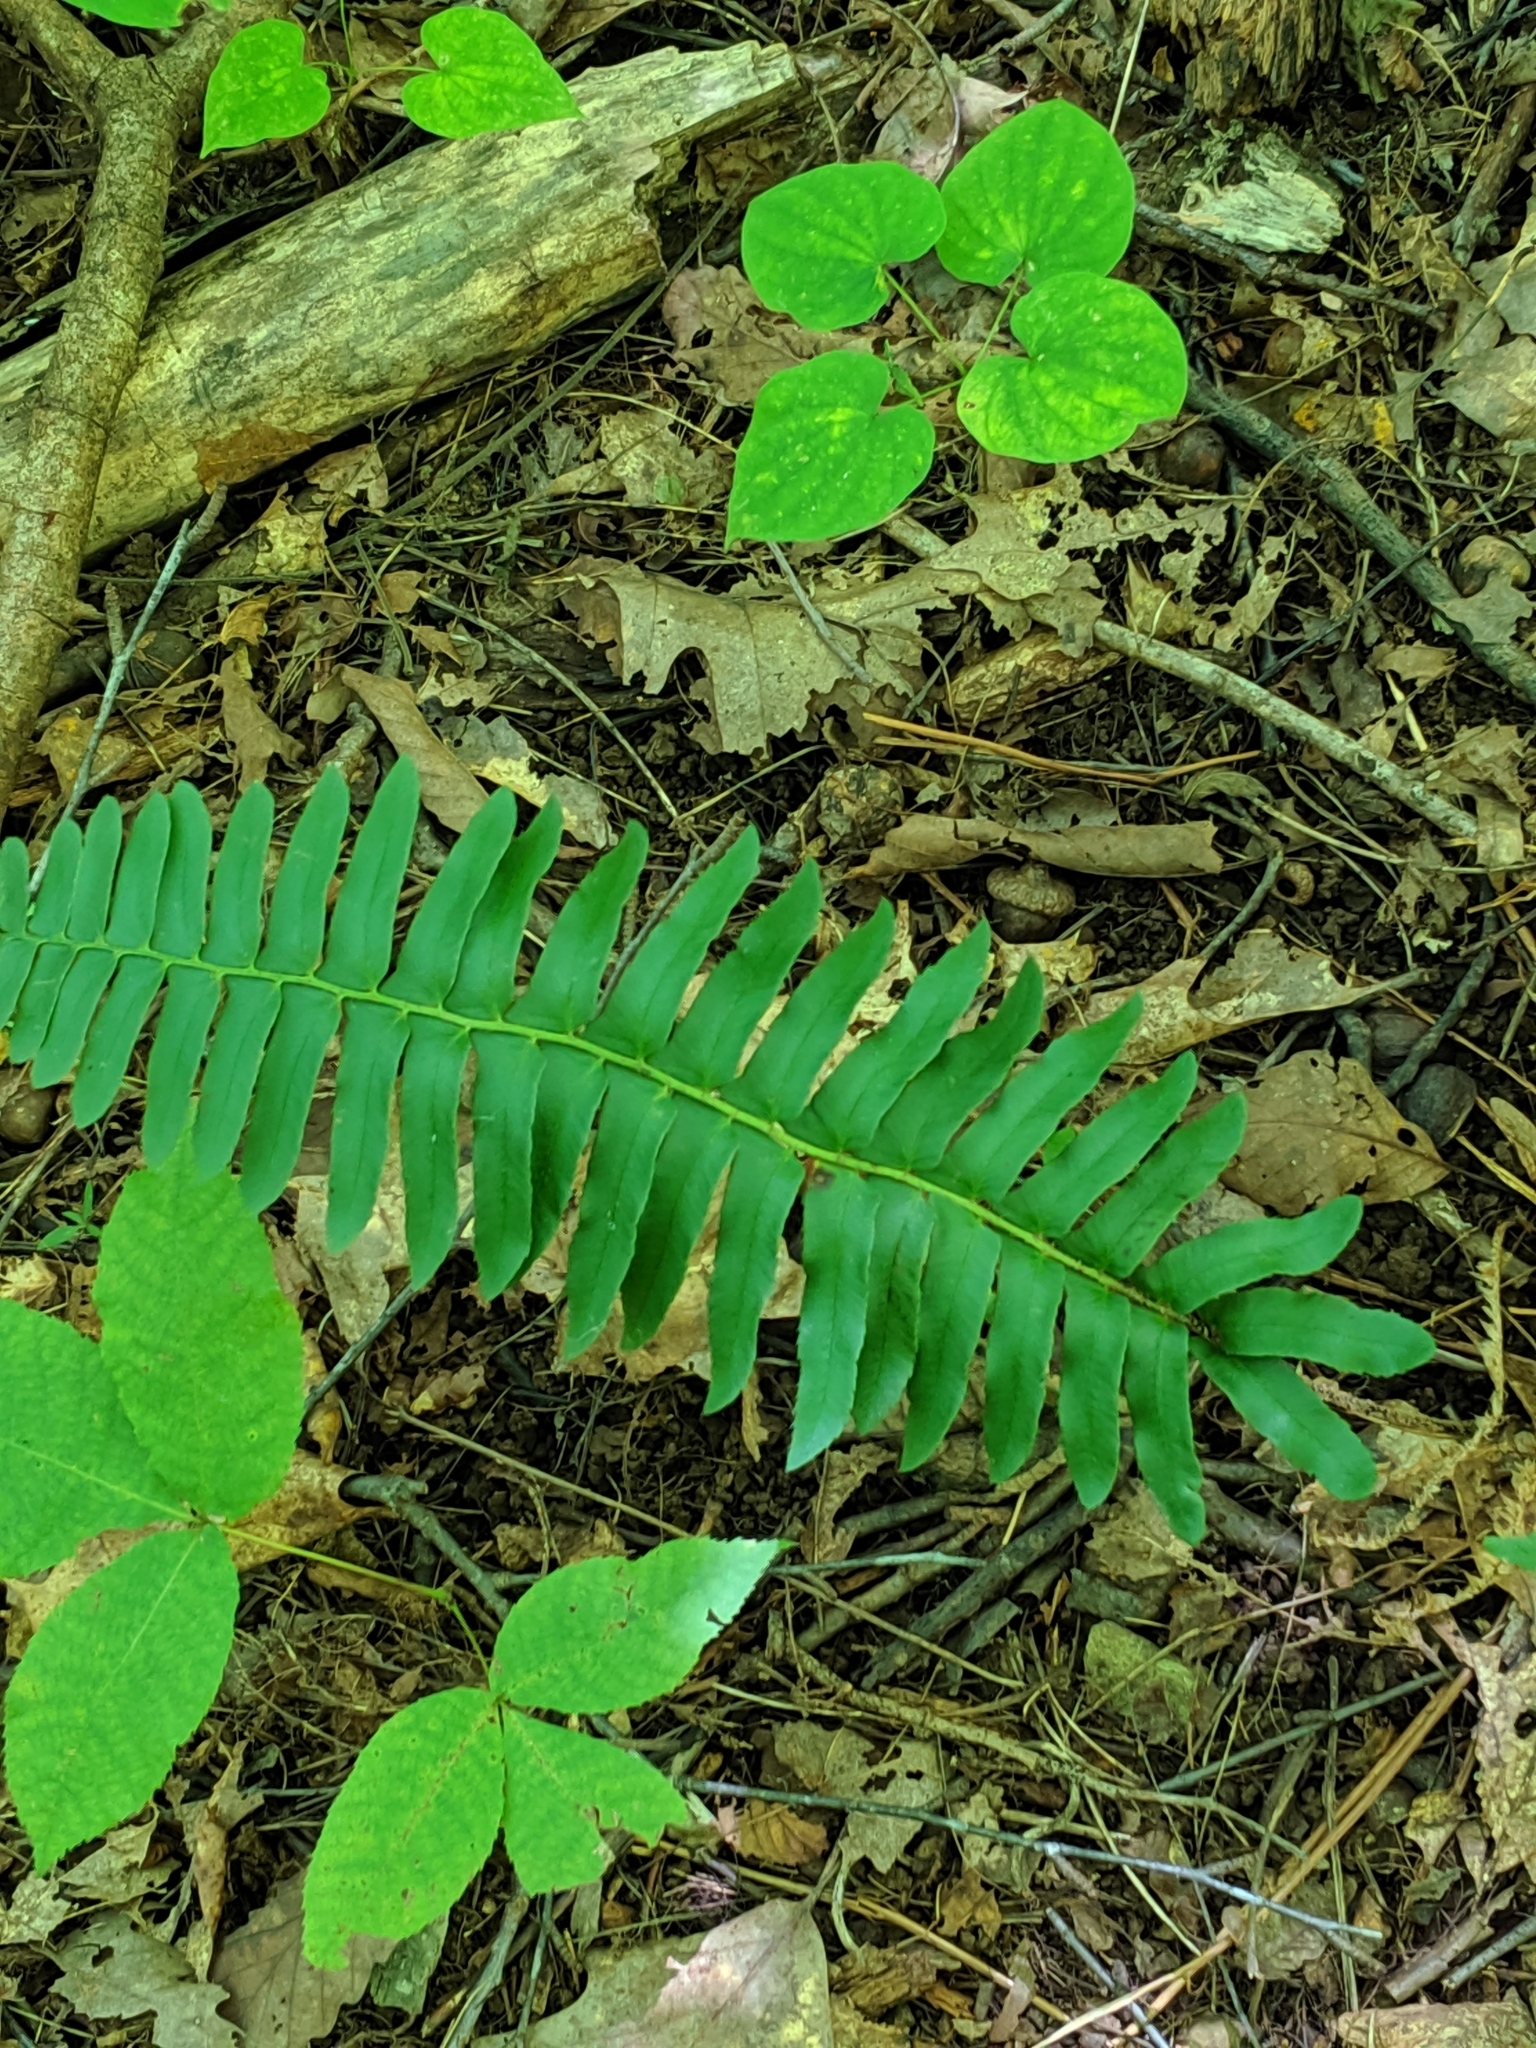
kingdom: Plantae
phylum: Tracheophyta
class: Polypodiopsida
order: Polypodiales
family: Dryopteridaceae
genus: Polystichum
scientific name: Polystichum acrostichoides
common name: Christmas fern
